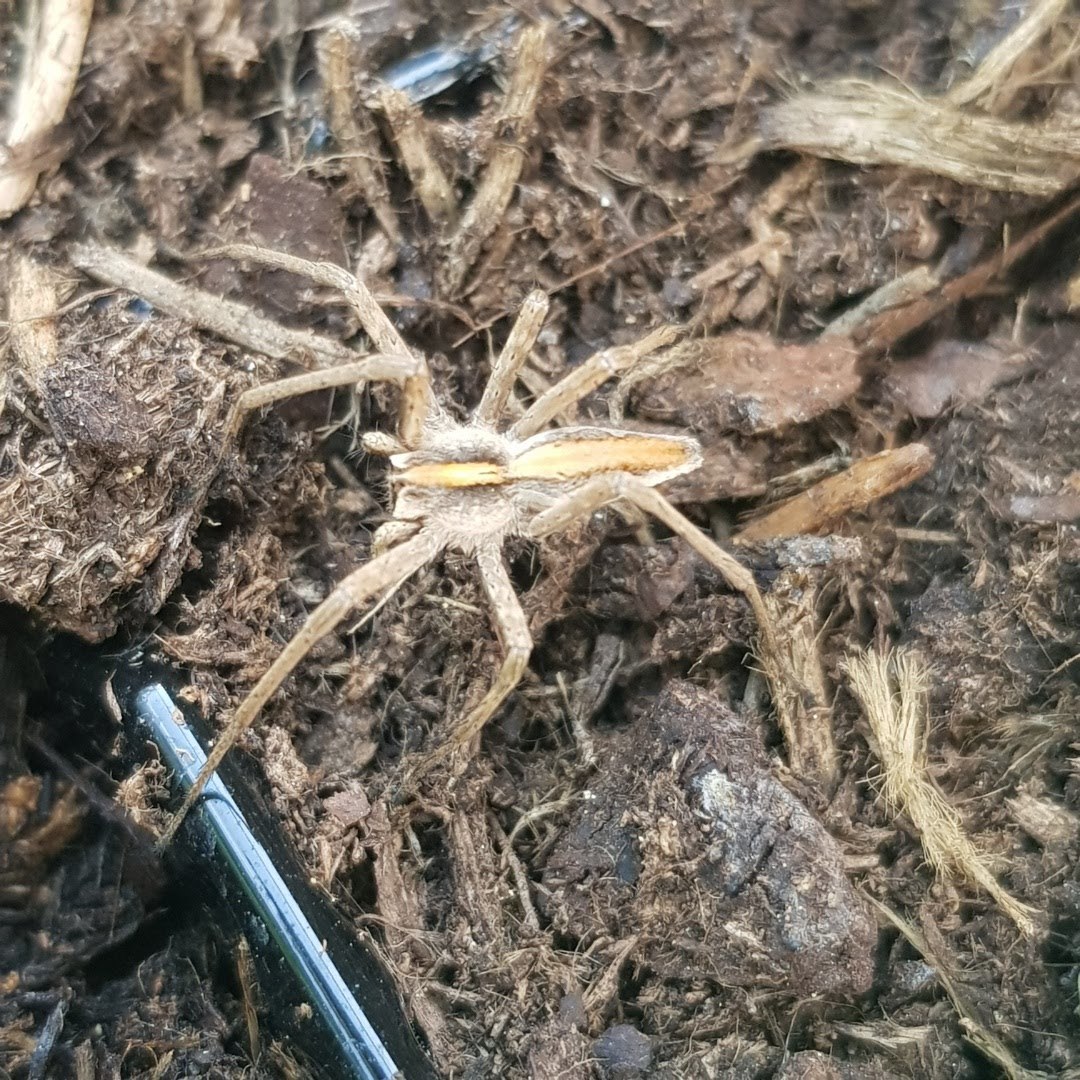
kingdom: Animalia
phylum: Arthropoda
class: Arachnida
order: Araneae
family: Pisauridae
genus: Pisaura
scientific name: Pisaura mirabilis
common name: Tent spider
